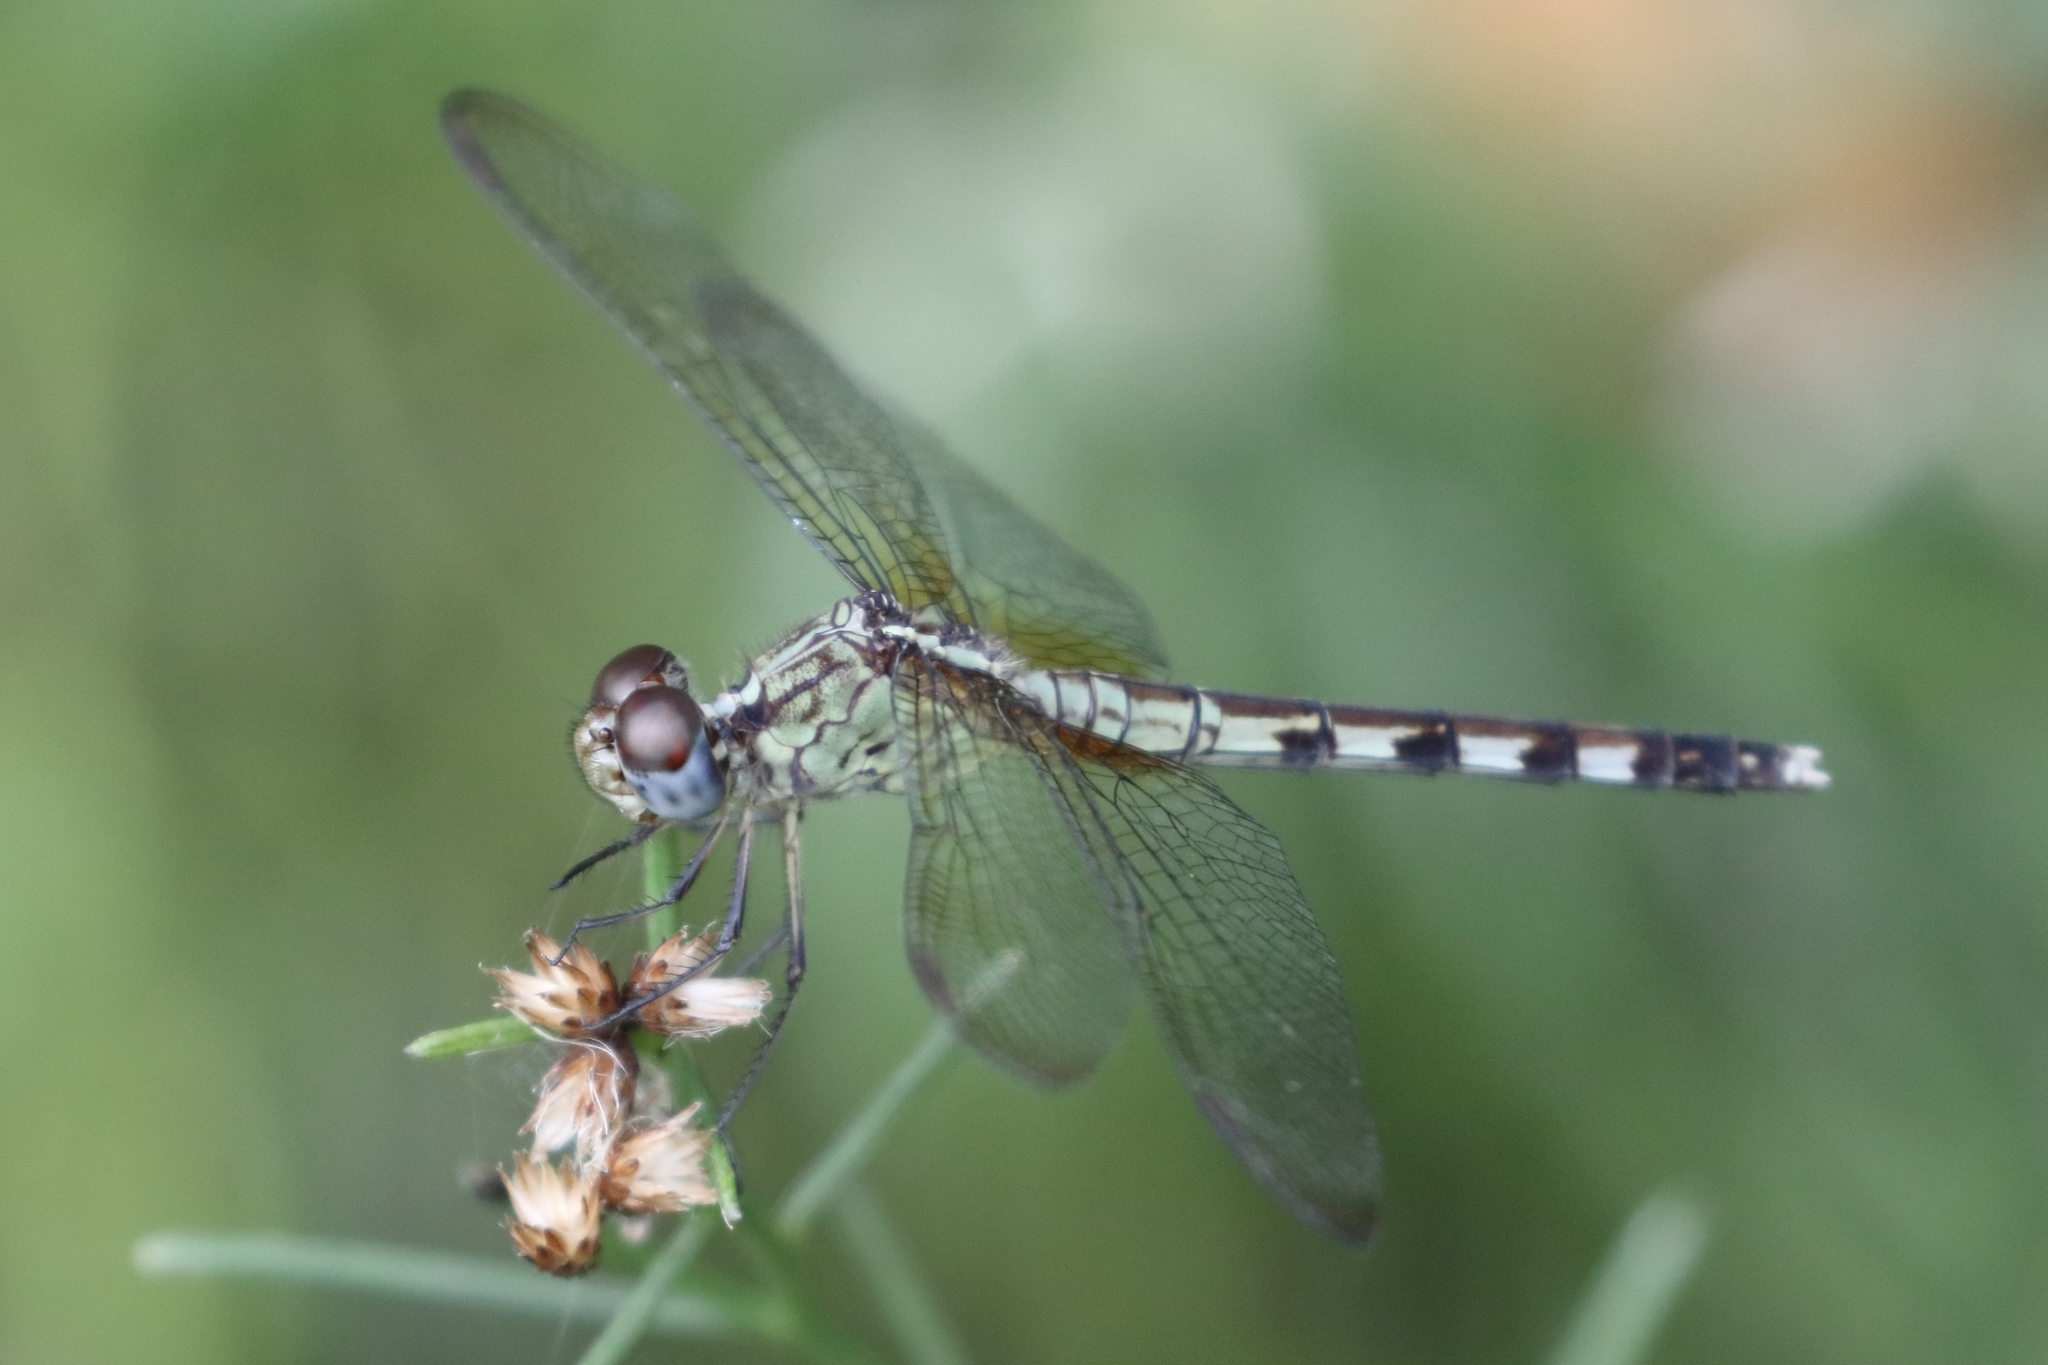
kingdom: Animalia
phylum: Arthropoda
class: Insecta
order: Odonata
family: Libellulidae
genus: Erythrodiplax
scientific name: Erythrodiplax umbrata
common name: Band-winged dragonlet
